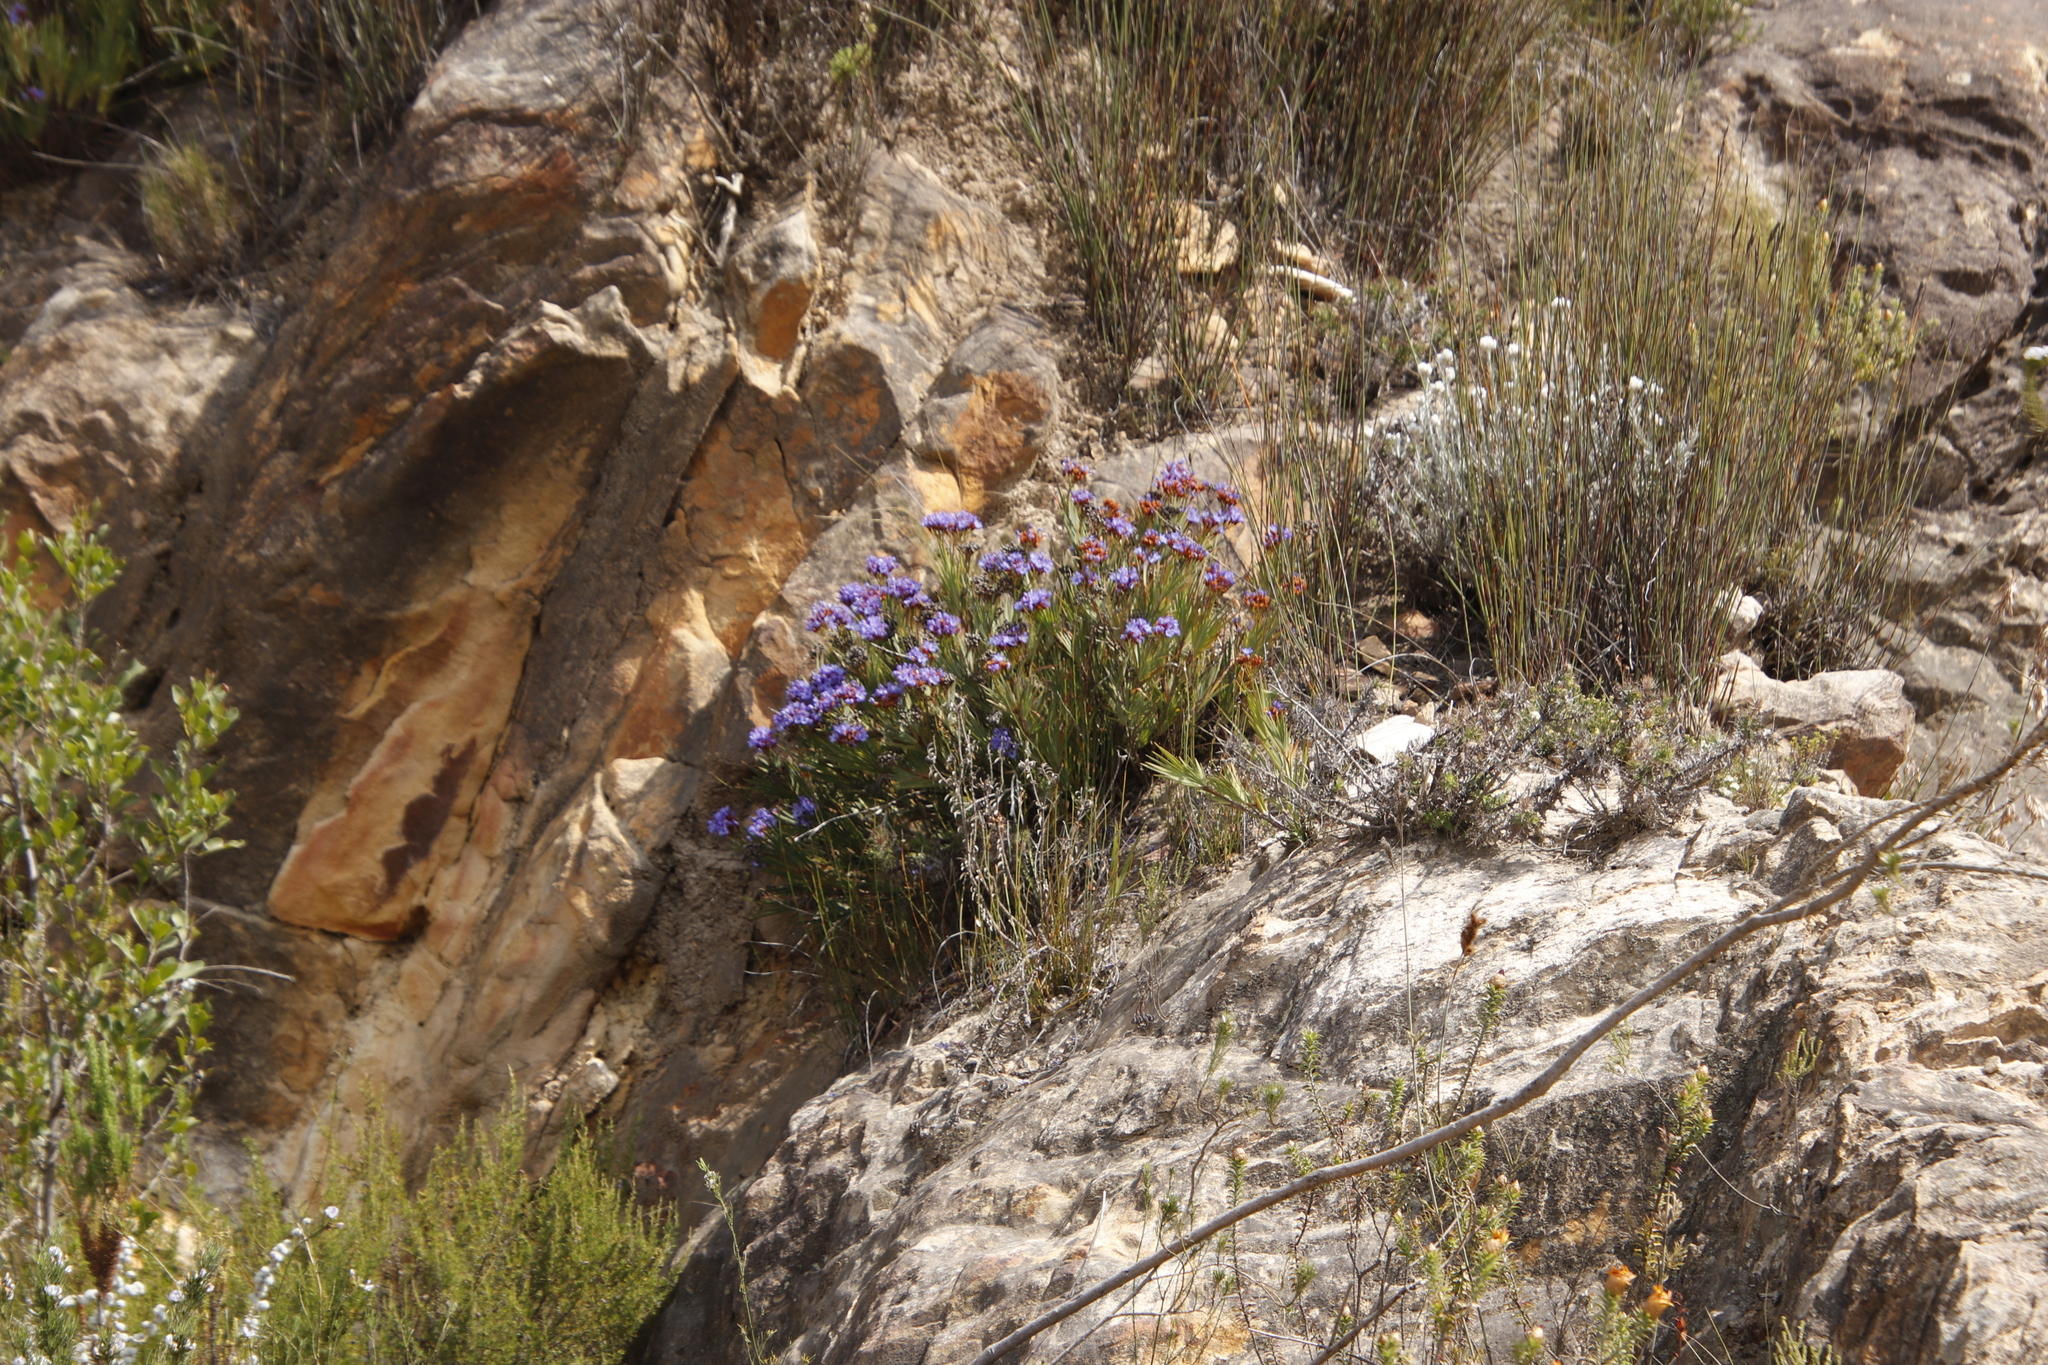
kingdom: Plantae
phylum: Tracheophyta
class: Liliopsida
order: Asparagales
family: Iridaceae
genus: Nivenia
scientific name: Nivenia binata
